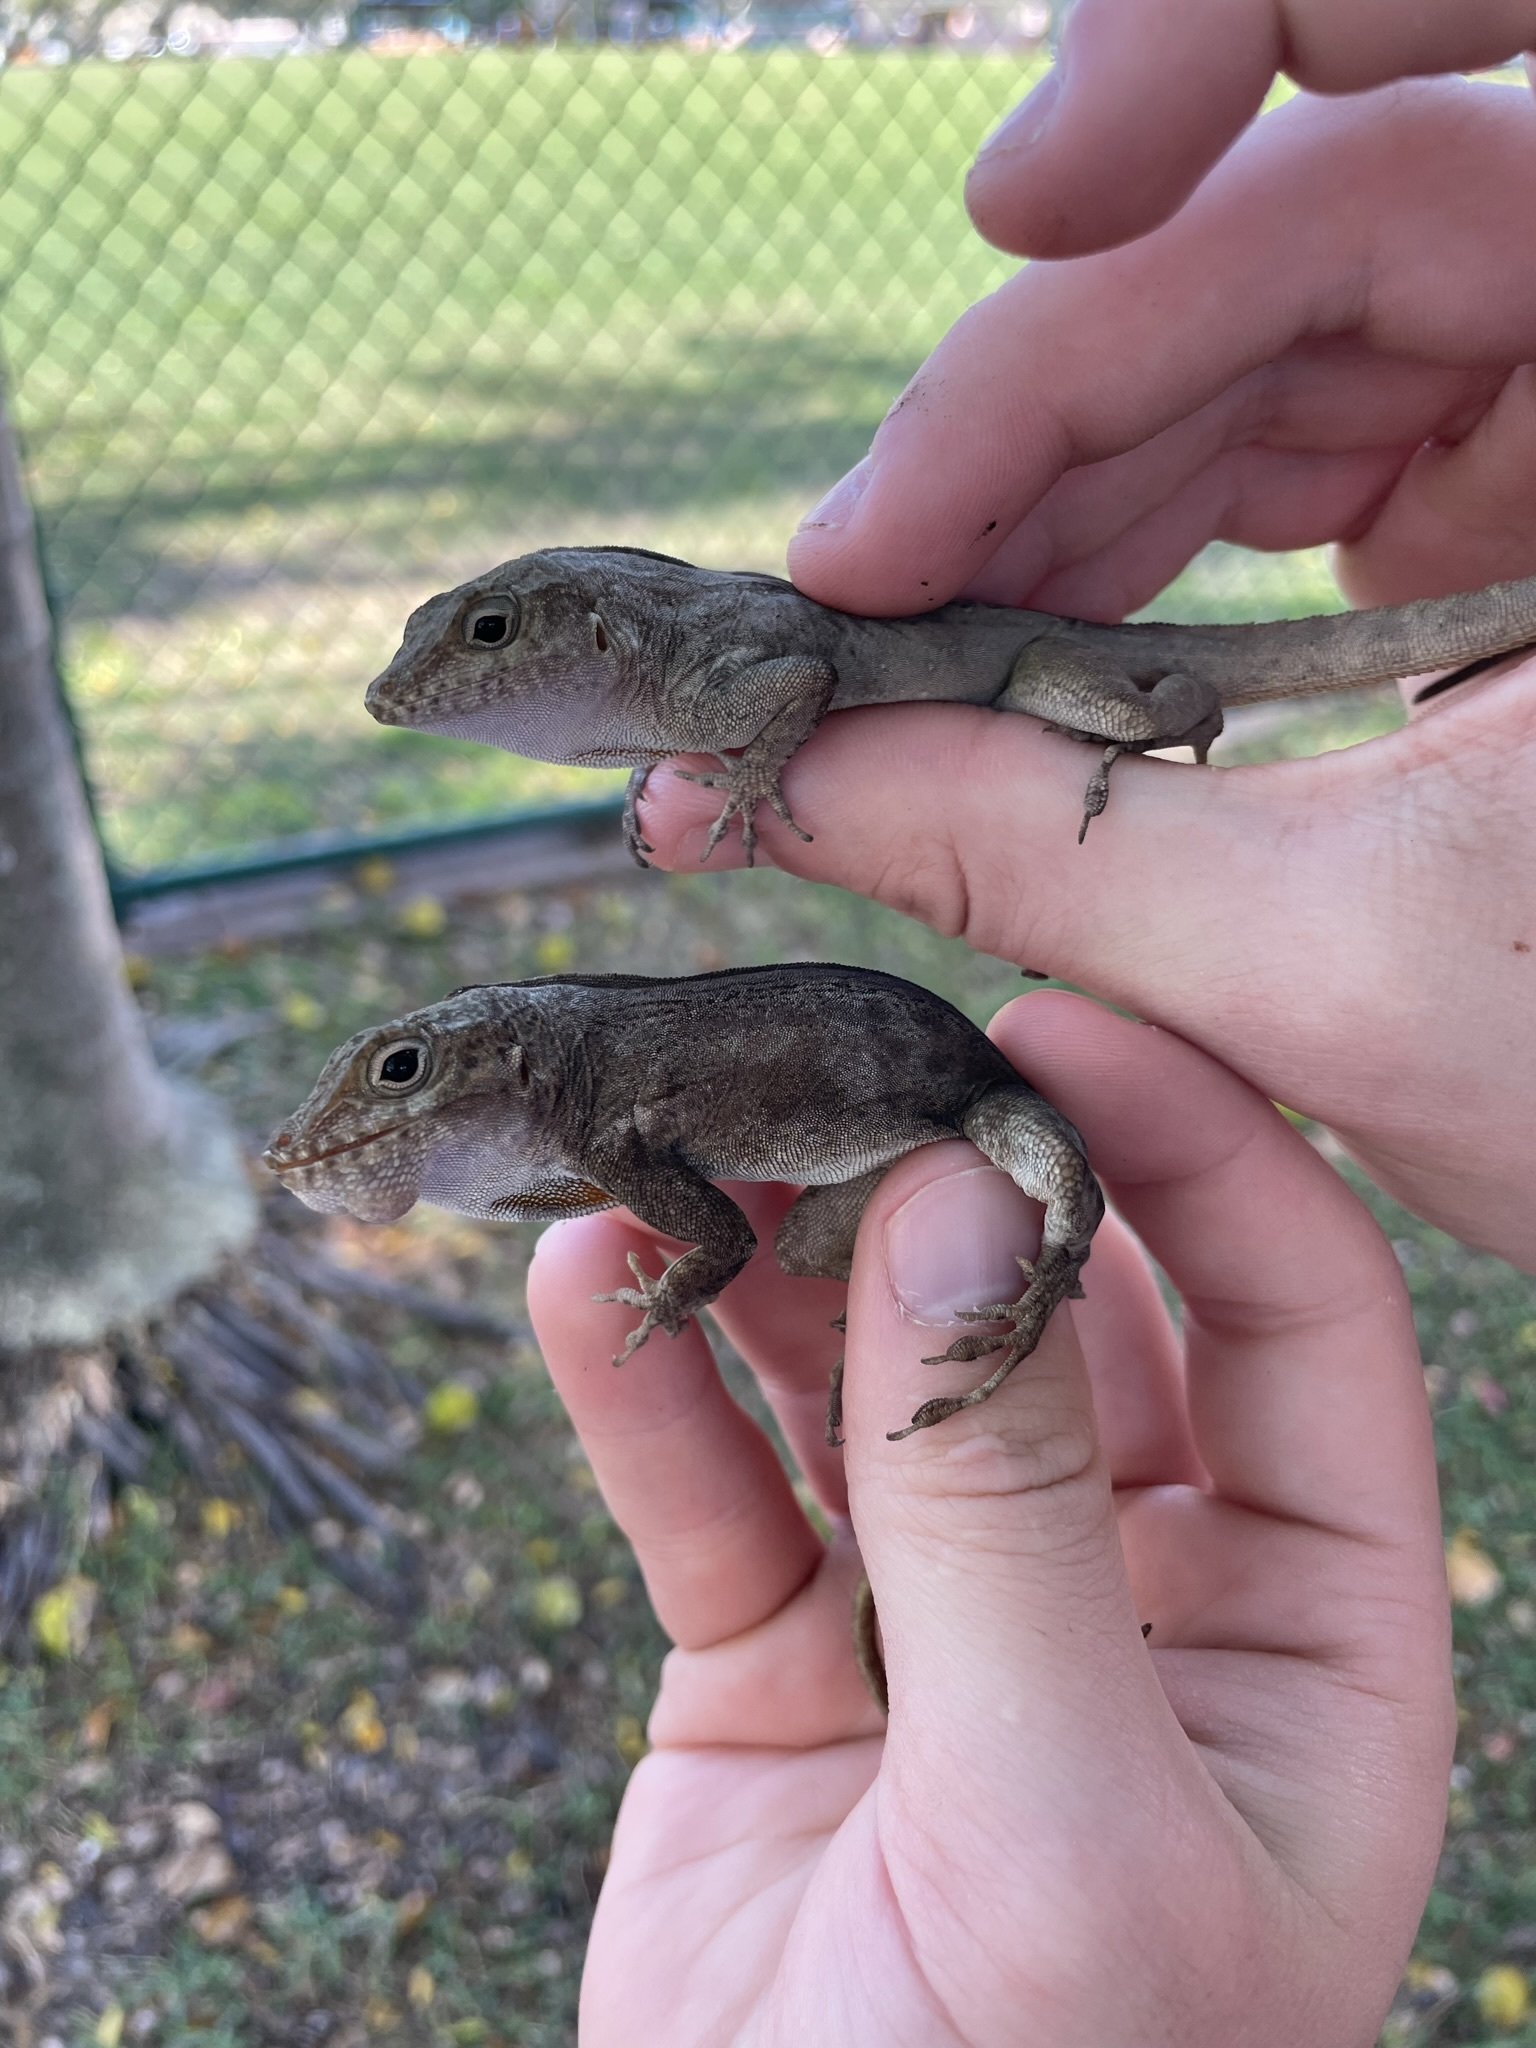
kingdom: Animalia
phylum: Chordata
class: Squamata
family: Dactyloidae
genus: Anolis
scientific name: Anolis cristatellus
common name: Crested anole
